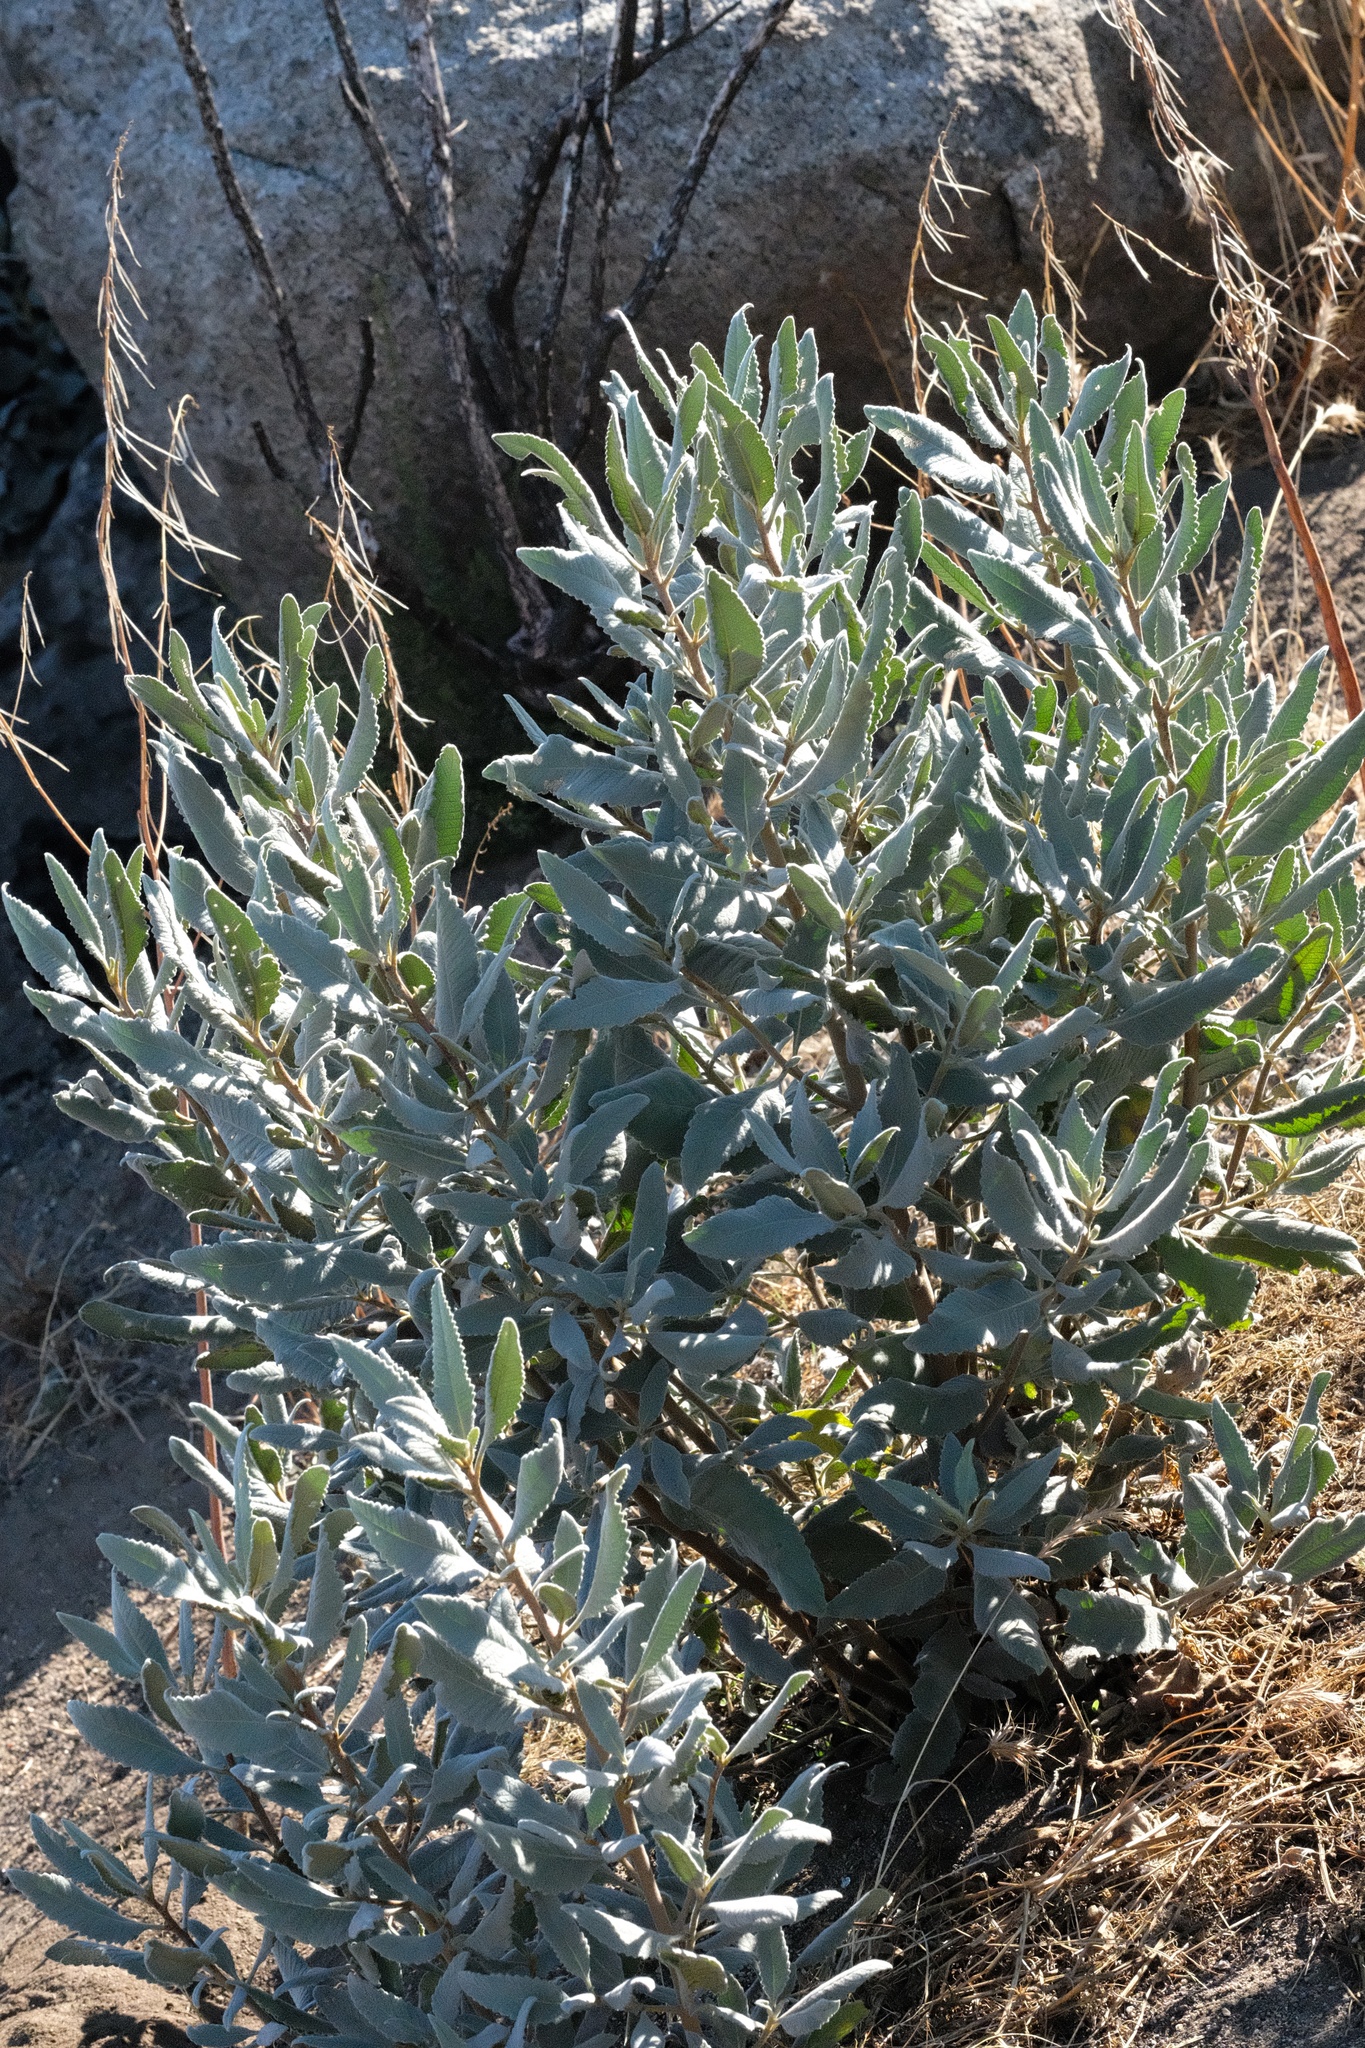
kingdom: Plantae
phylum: Tracheophyta
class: Magnoliopsida
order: Boraginales
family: Namaceae
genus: Eriodictyon
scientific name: Eriodictyon crassifolium
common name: Thick-leaf yerba-santa
